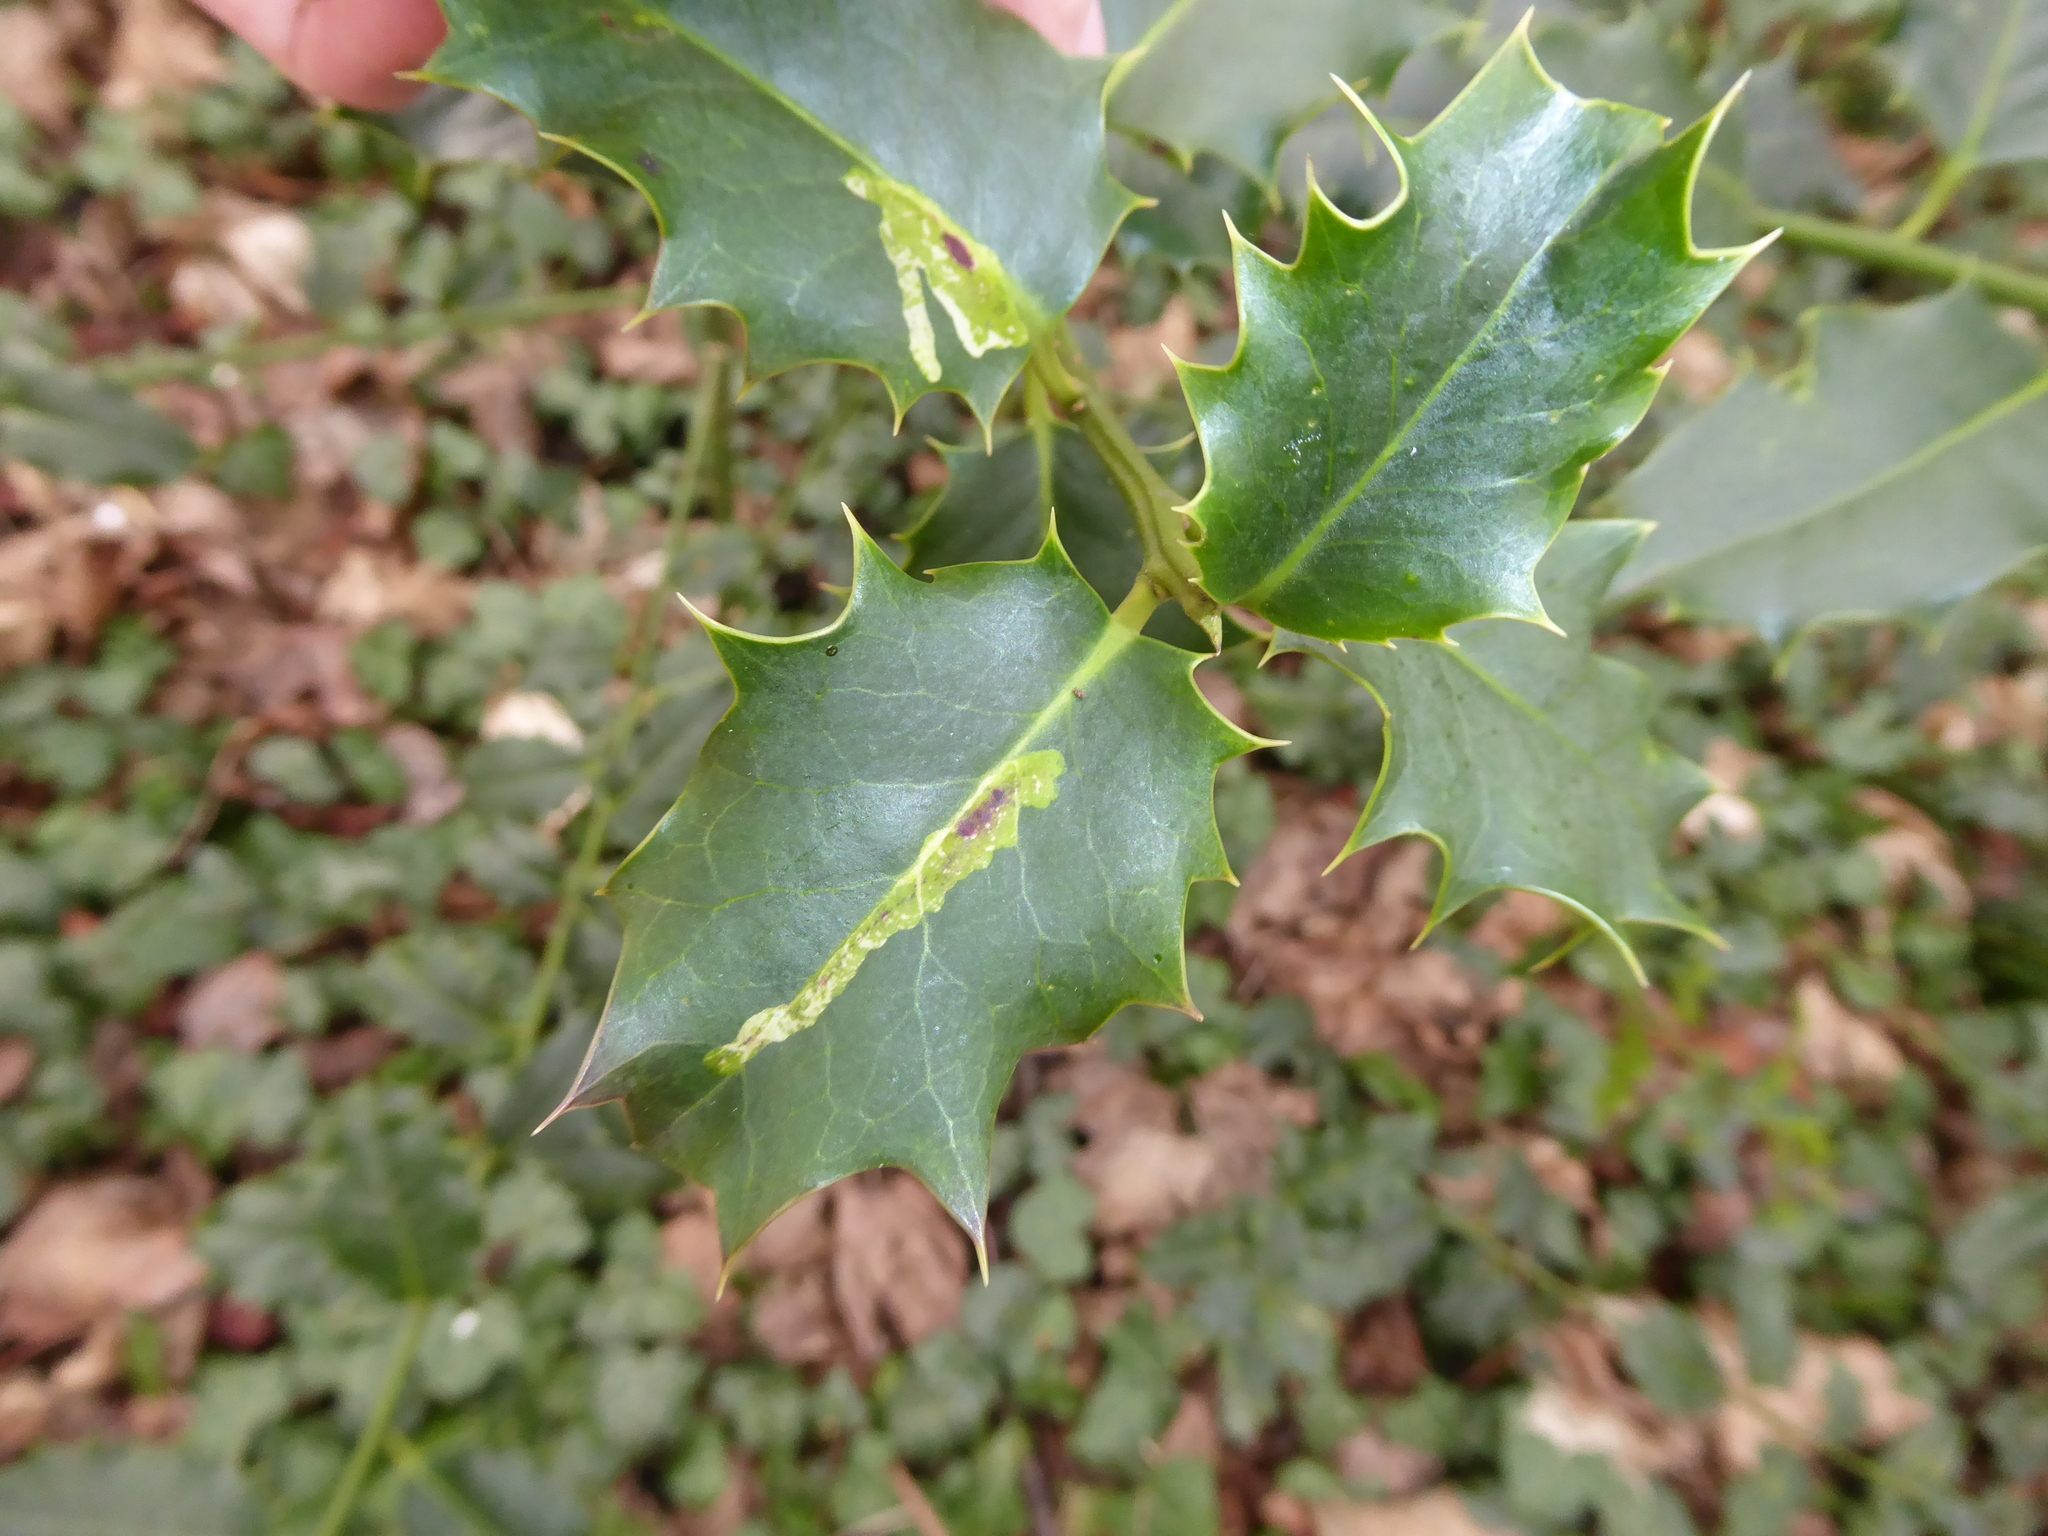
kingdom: Animalia
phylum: Arthropoda
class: Insecta
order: Diptera
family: Agromyzidae
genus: Phytomyza
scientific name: Phytomyza ilicis
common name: Holly leafminer
